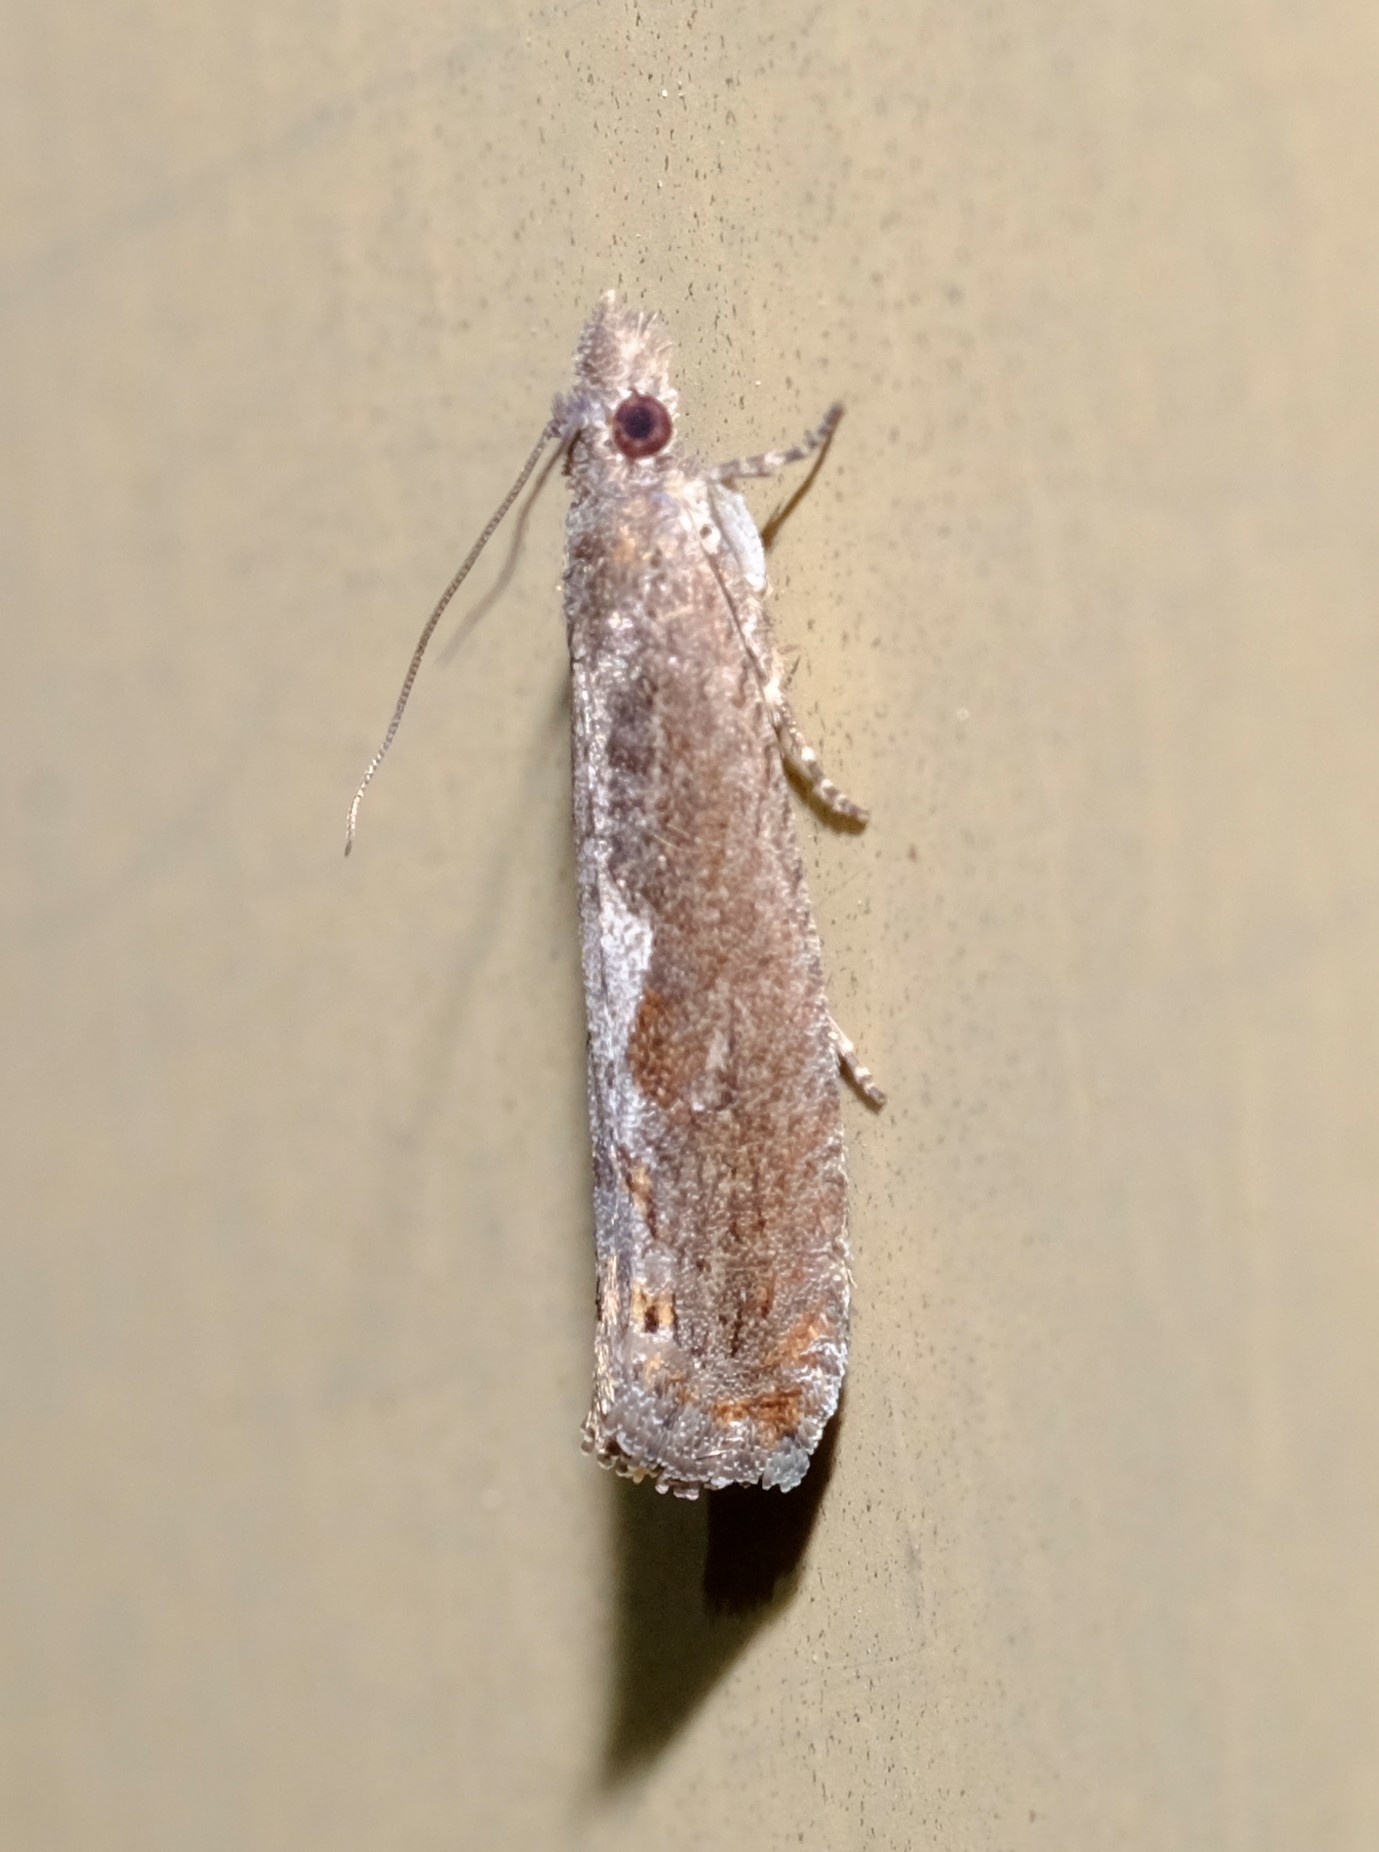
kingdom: Animalia
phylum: Arthropoda
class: Insecta
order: Lepidoptera
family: Tortricidae
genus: Ancylis
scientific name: Ancylis pseustis
